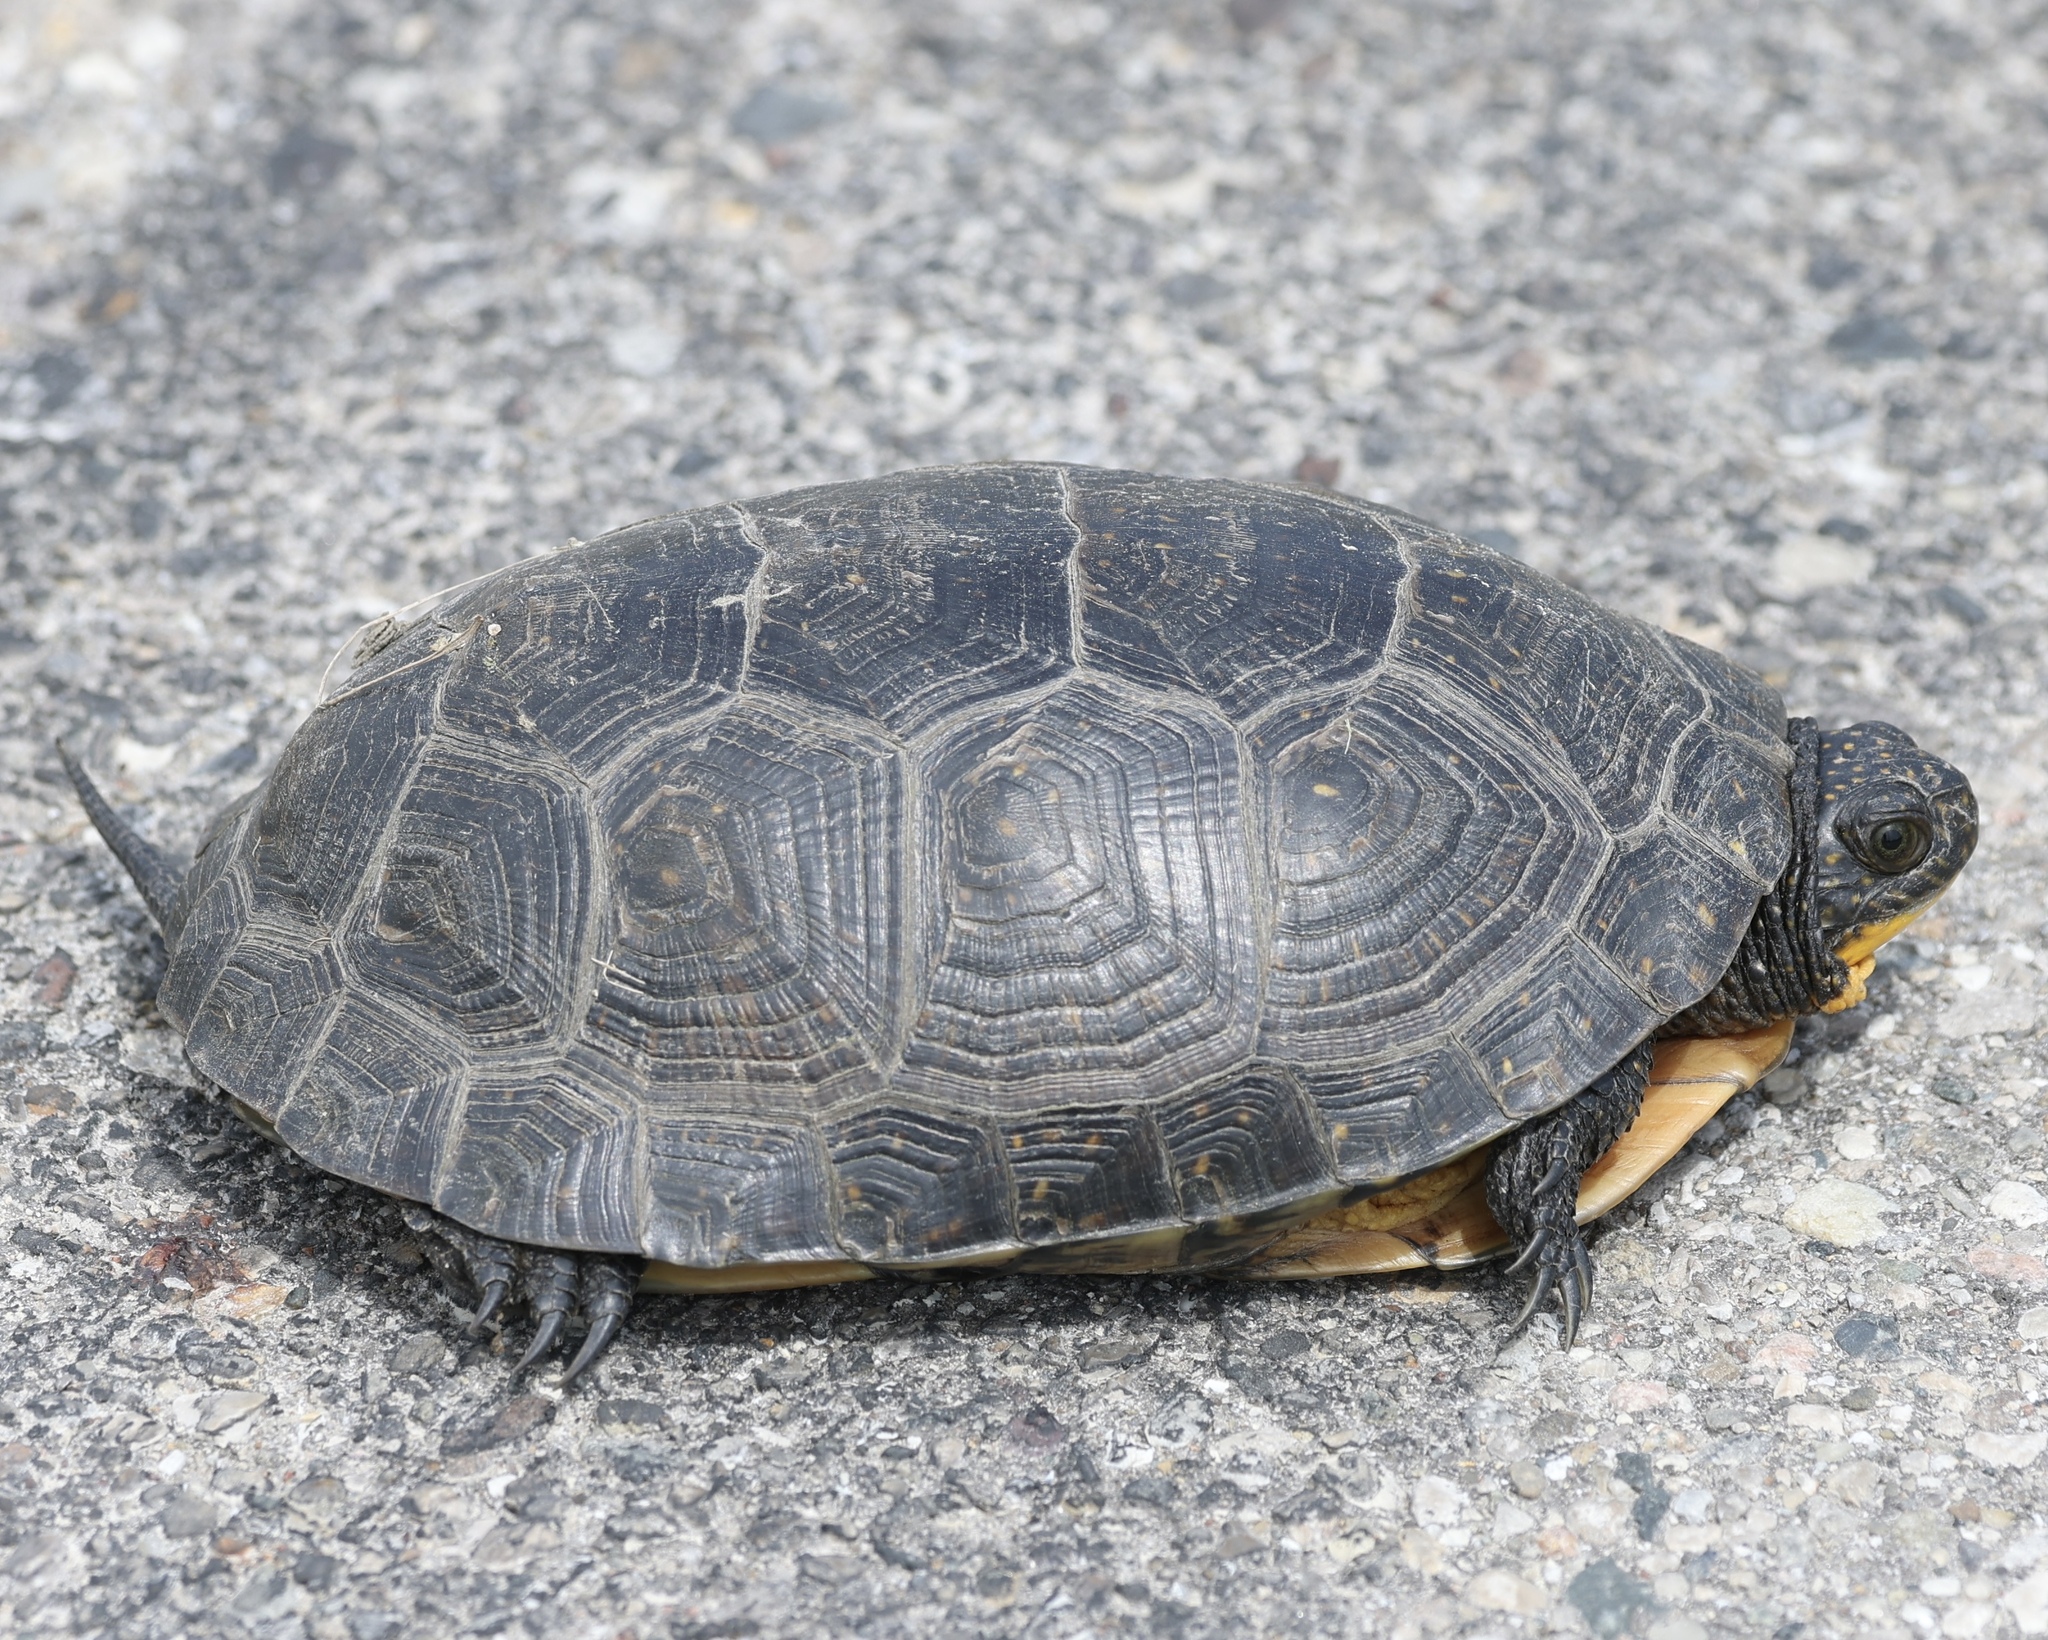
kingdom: Animalia
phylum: Chordata
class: Testudines
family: Emydidae
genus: Emys
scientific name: Emys blandingii
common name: Blanding's turtle
